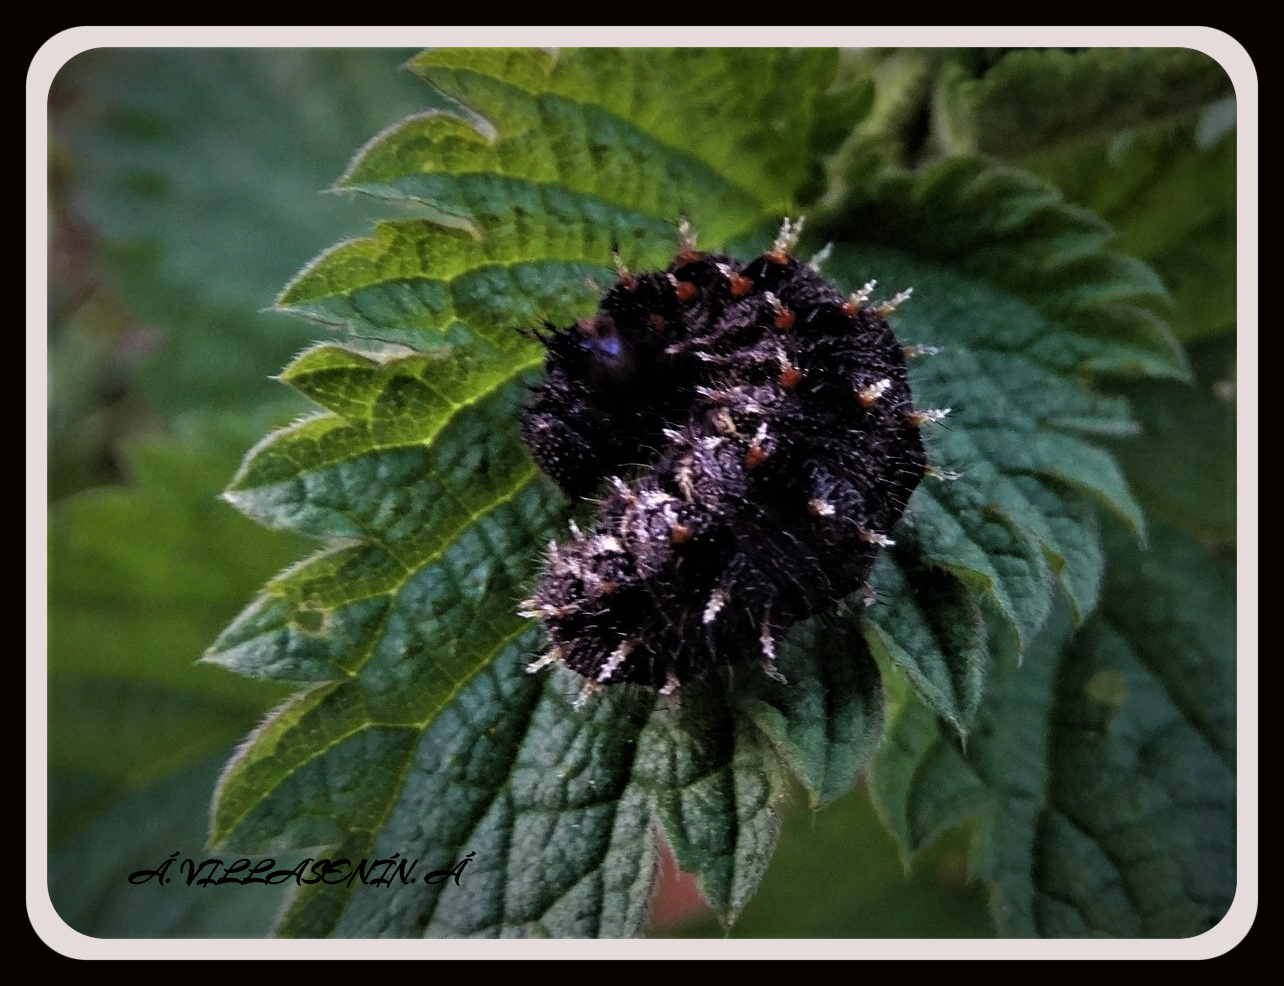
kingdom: Animalia
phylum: Arthropoda
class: Insecta
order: Lepidoptera
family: Nymphalidae
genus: Vanessa
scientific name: Vanessa atalanta
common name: Red admiral
